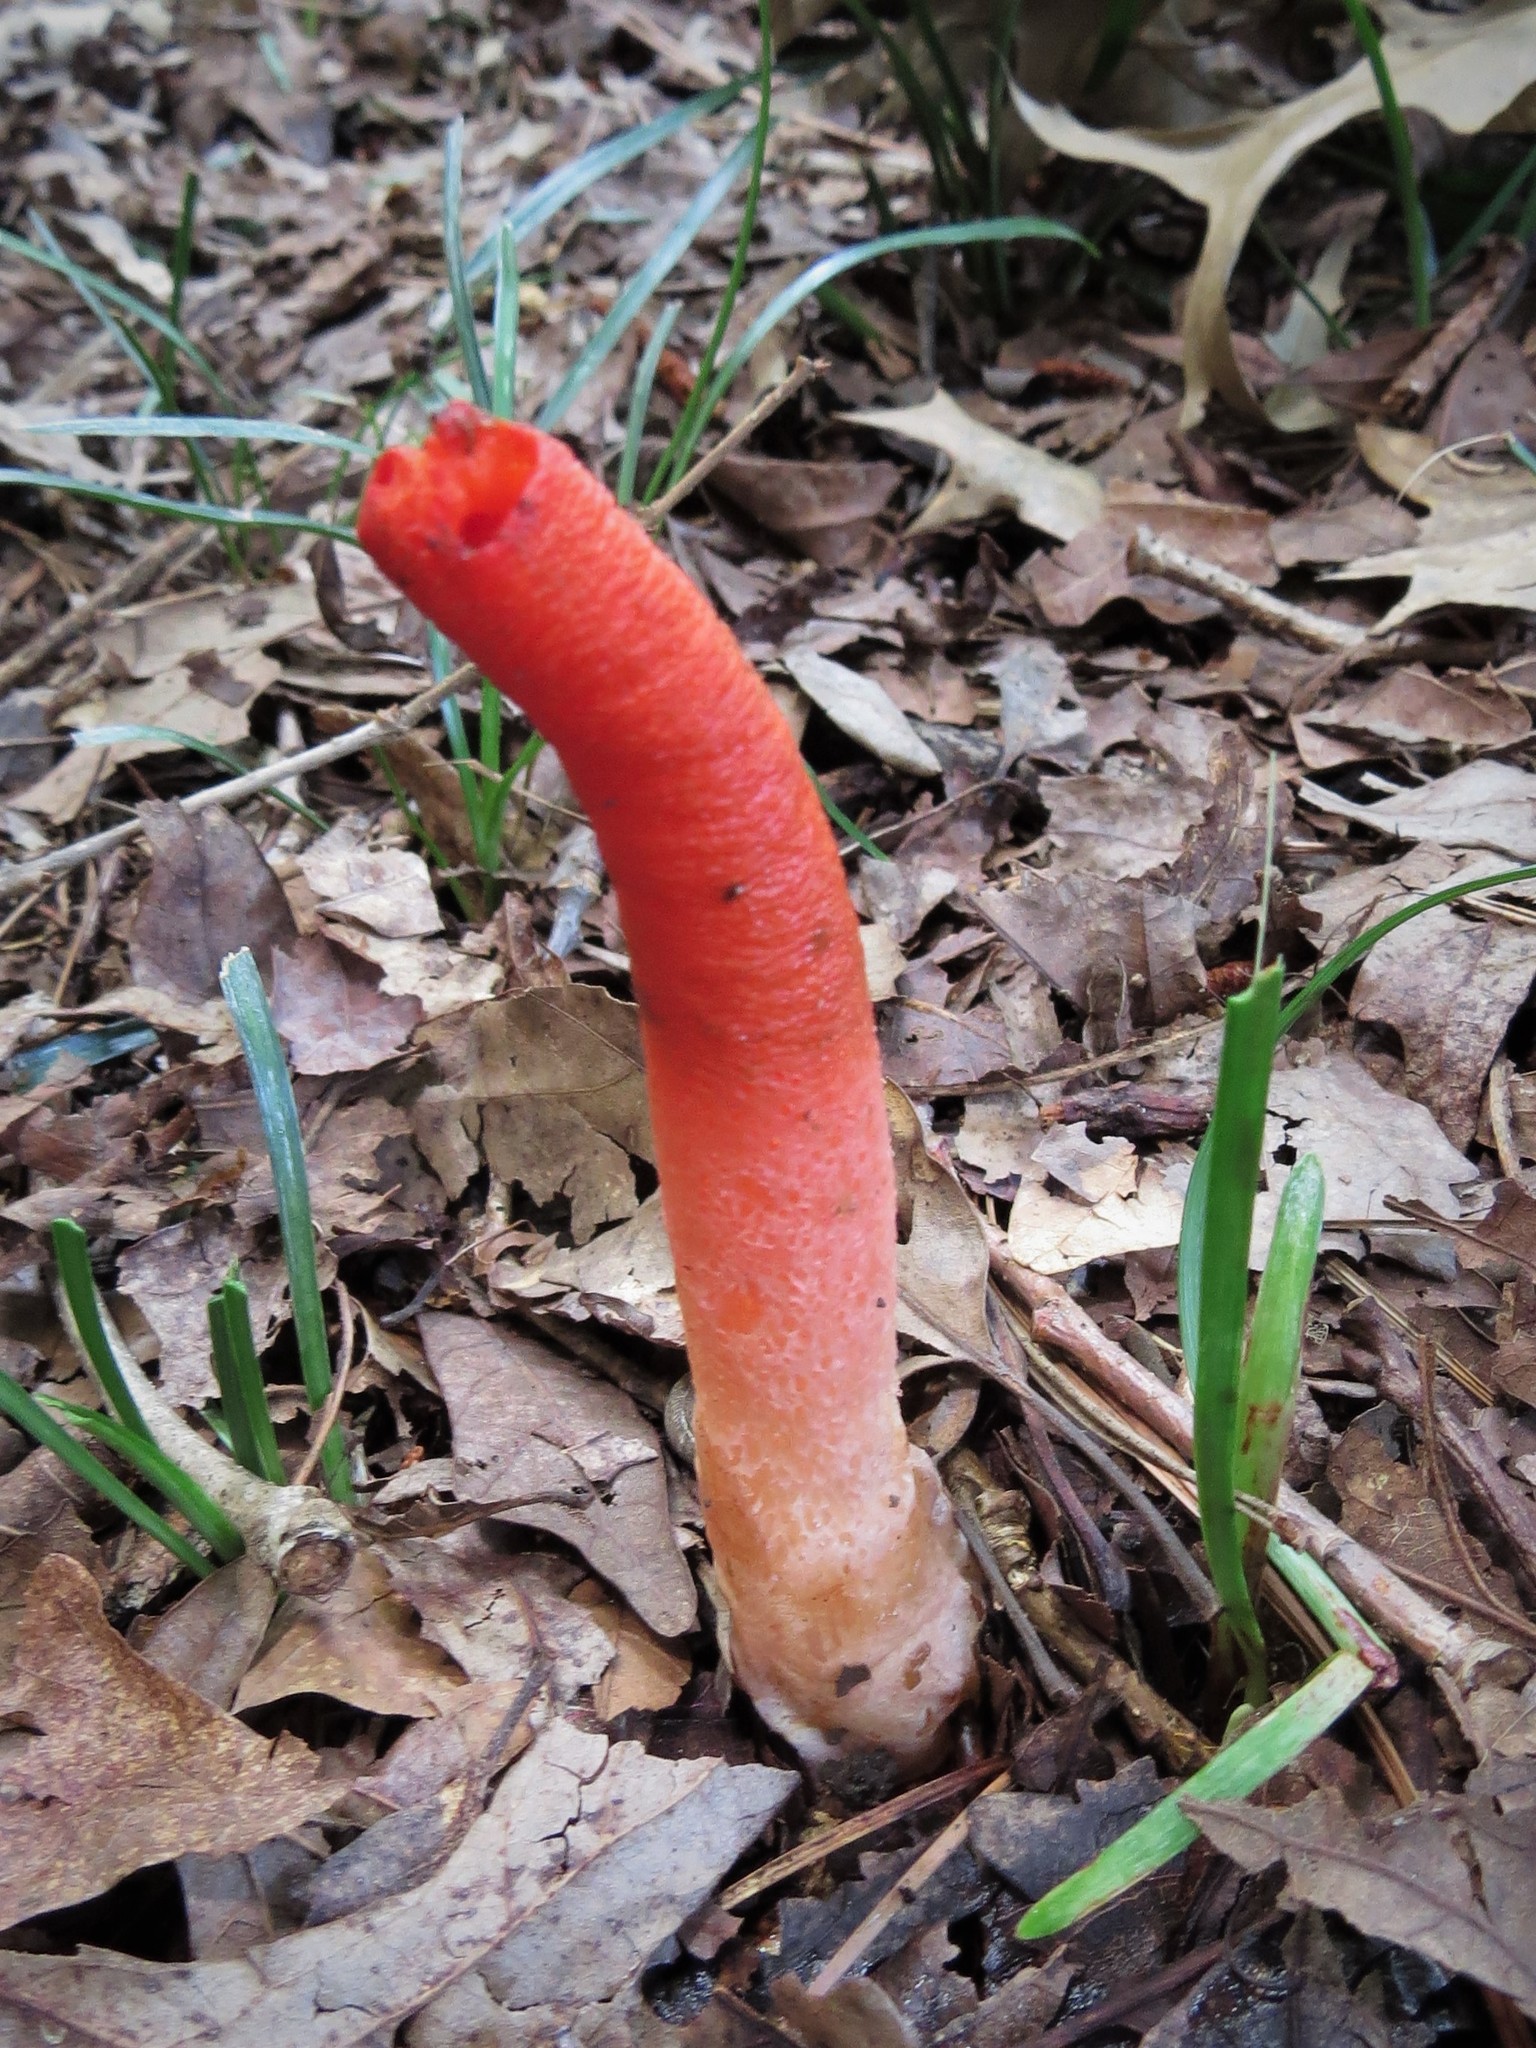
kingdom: Fungi
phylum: Basidiomycota
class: Agaricomycetes
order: Phallales
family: Phallaceae
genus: Mutinus
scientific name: Mutinus elegans
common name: Devil's dipstick
